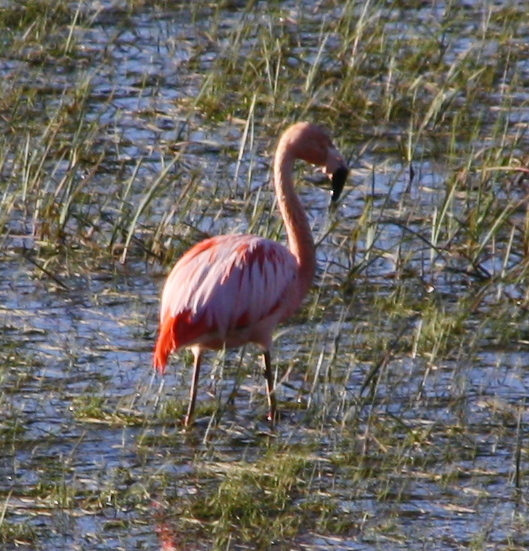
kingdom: Animalia
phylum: Chordata
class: Aves
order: Phoenicopteriformes
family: Phoenicopteridae
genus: Phoenicopterus
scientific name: Phoenicopterus chilensis
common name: Chilean flamingo
